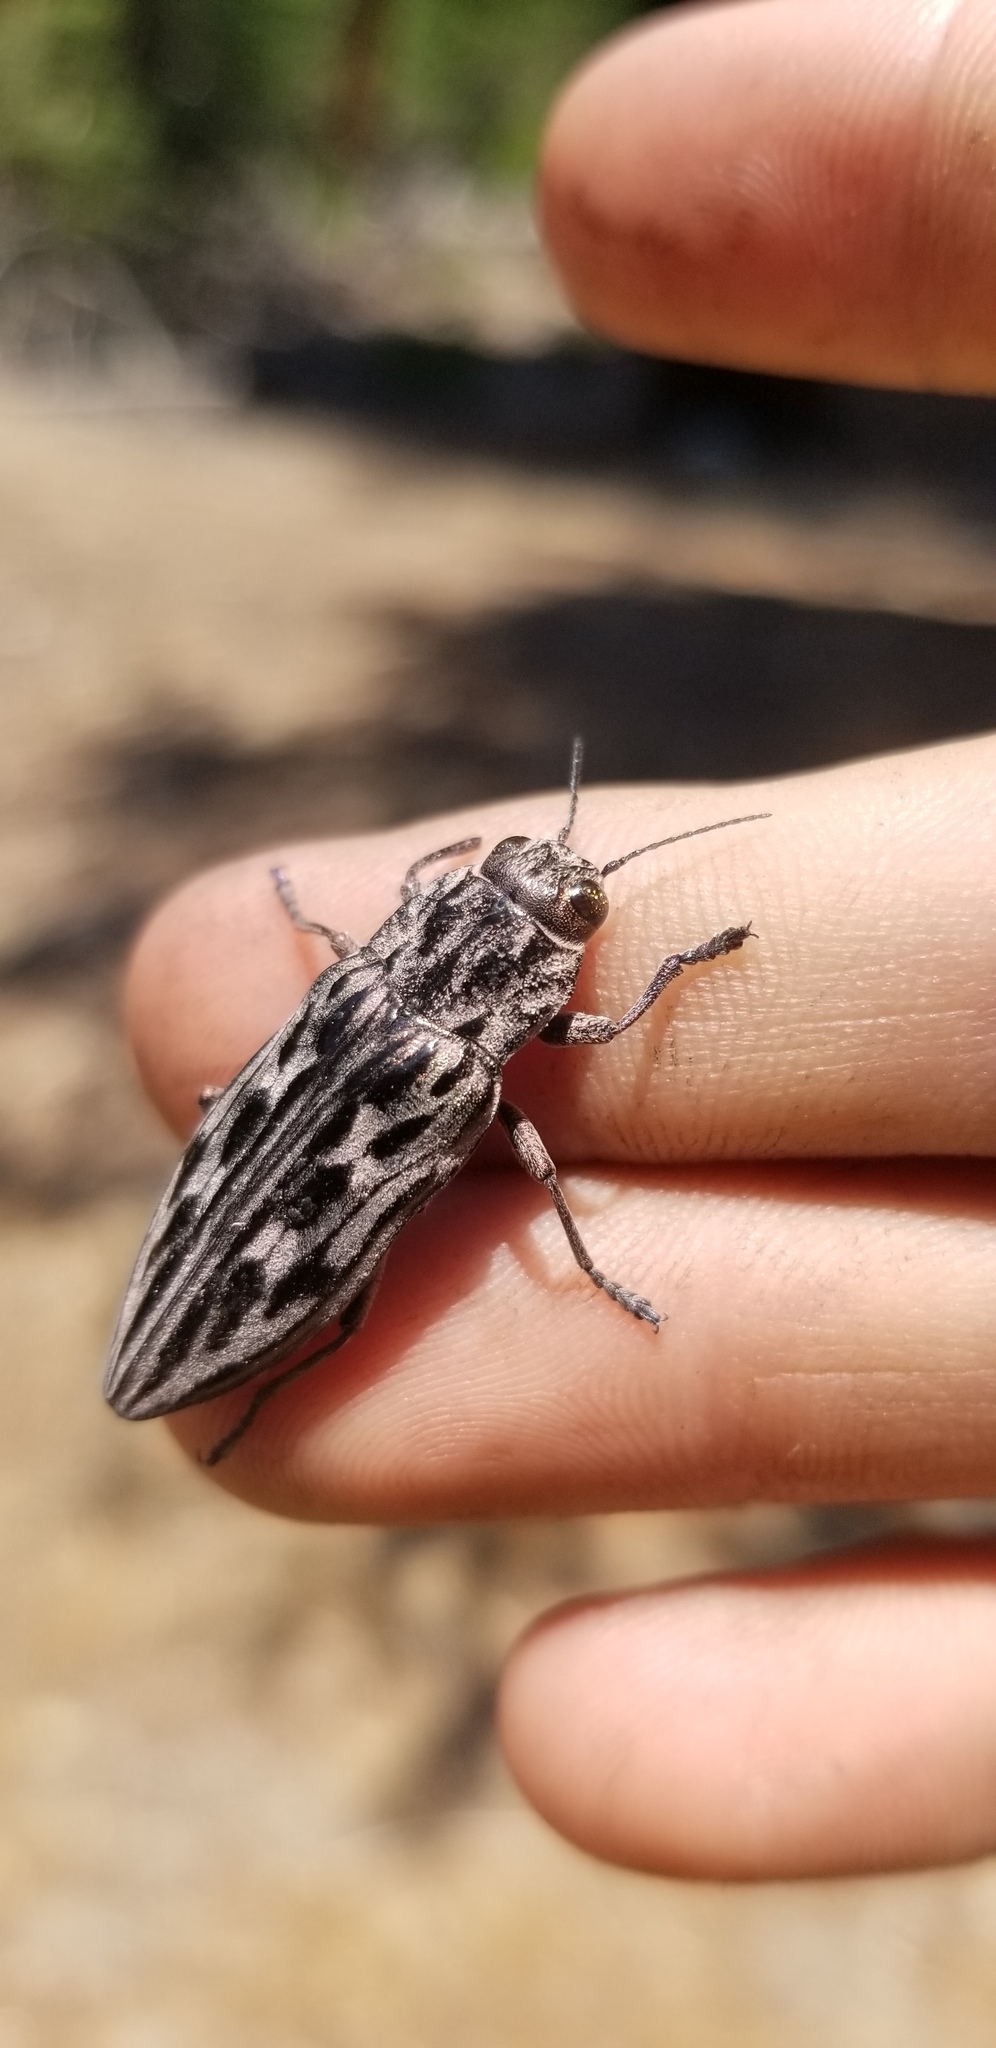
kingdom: Animalia
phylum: Arthropoda
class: Insecta
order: Coleoptera
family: Buprestidae
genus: Chalcophora
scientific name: Chalcophora angulicollis
